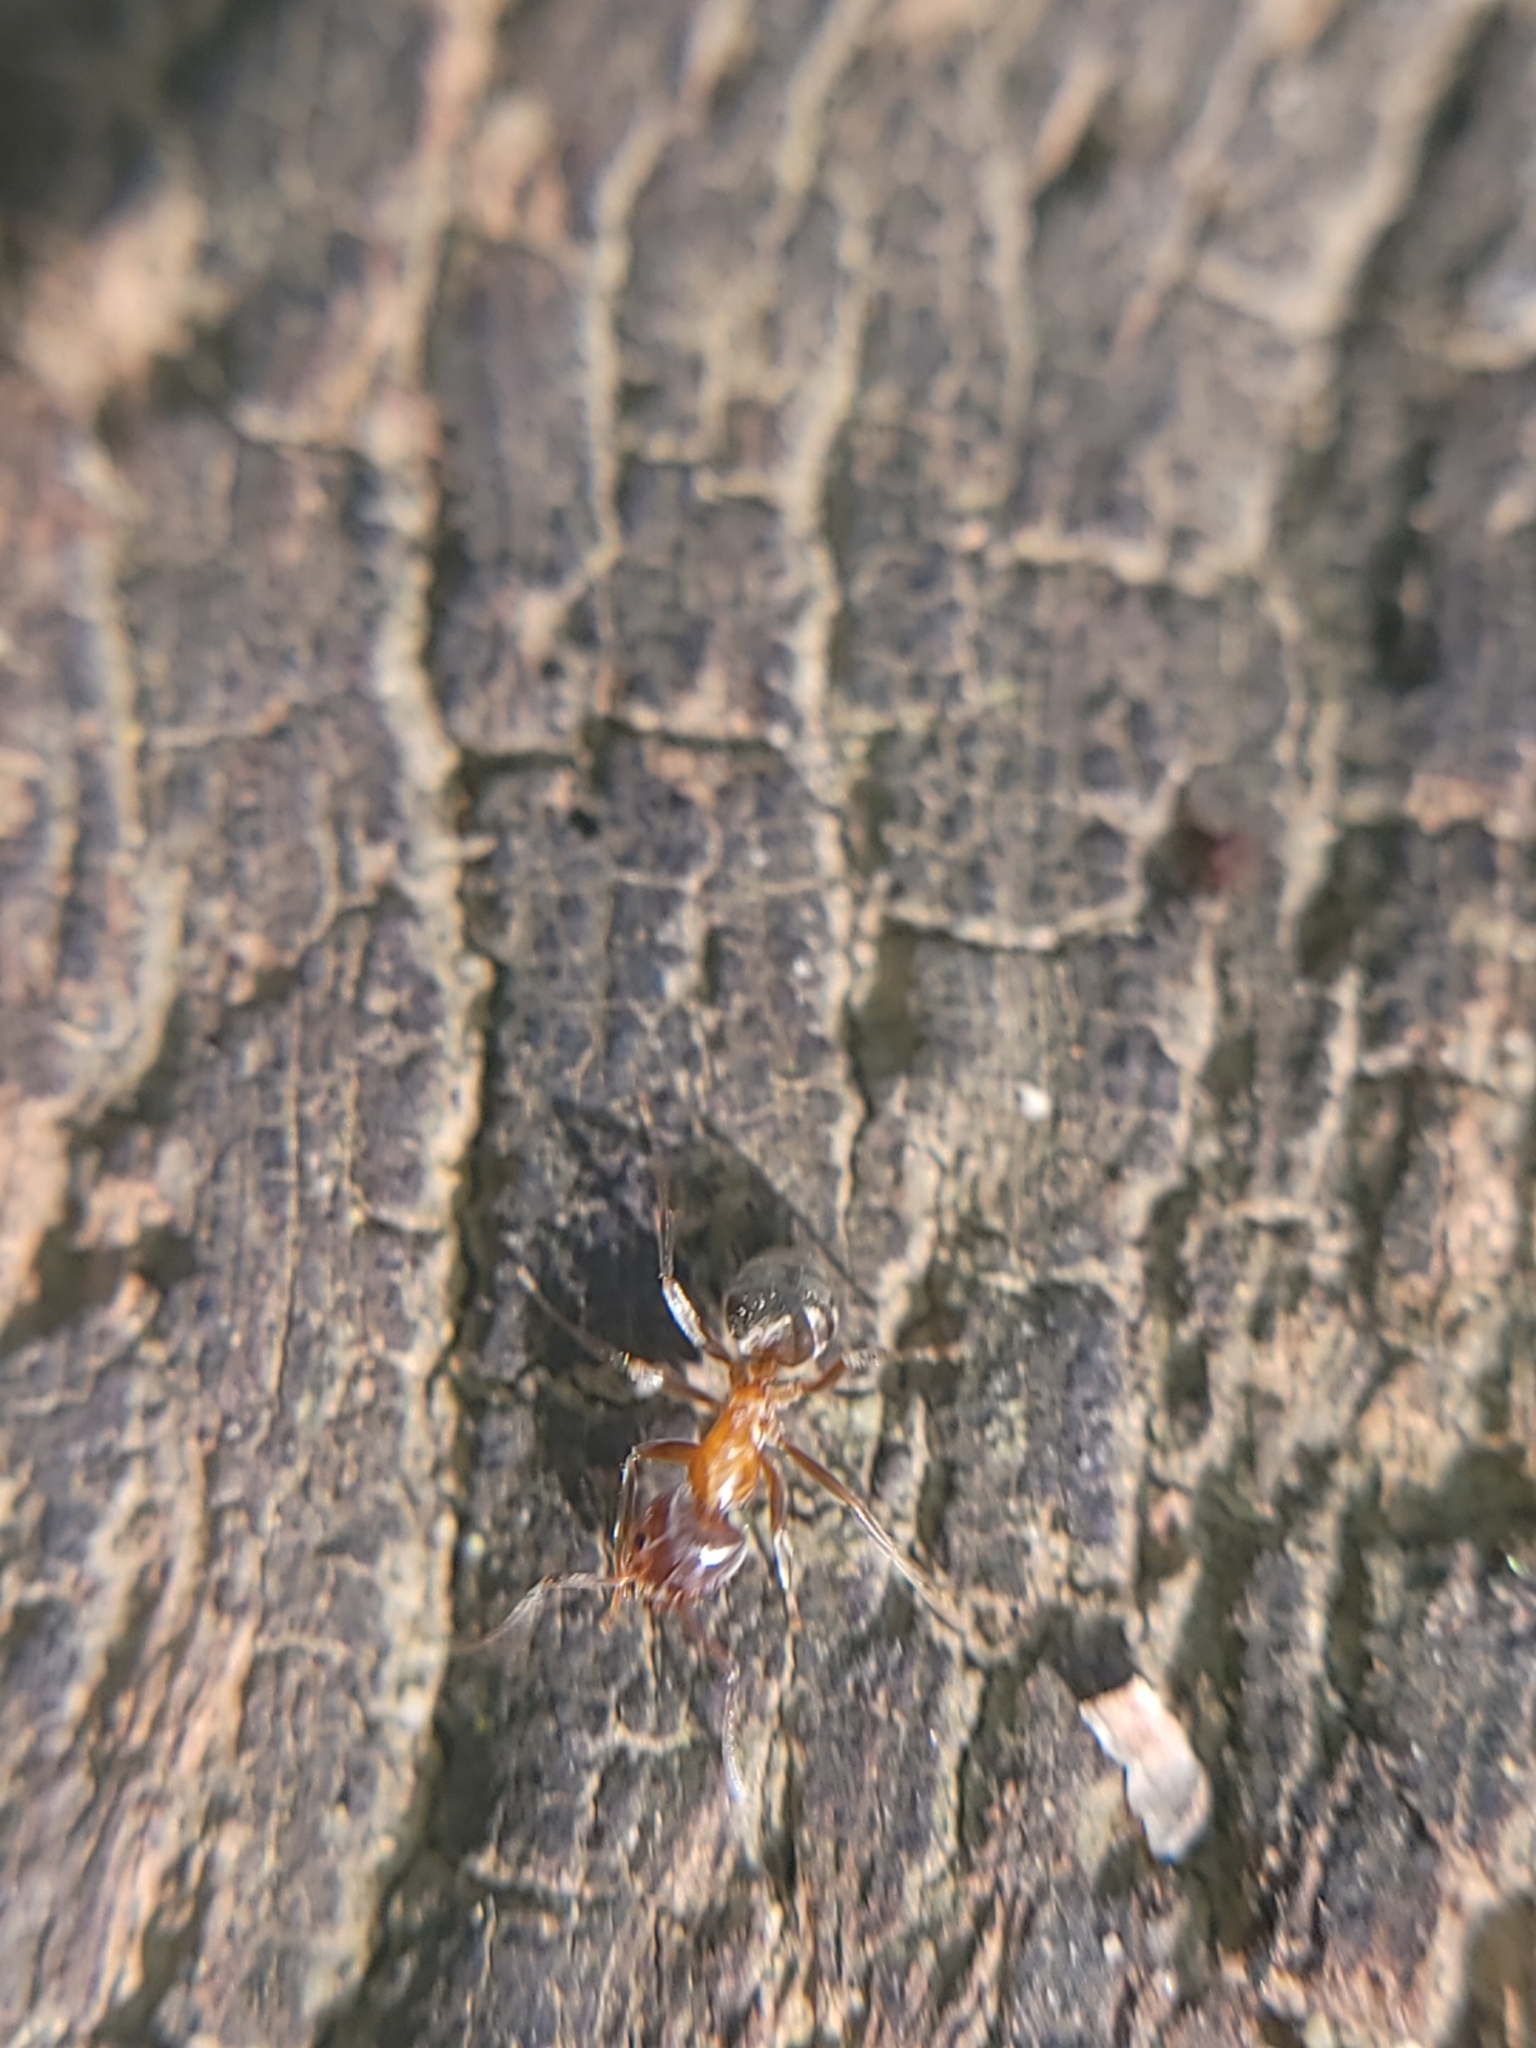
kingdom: Animalia
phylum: Arthropoda
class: Insecta
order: Hymenoptera
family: Formicidae
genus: Liometopum
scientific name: Liometopum occidentale
